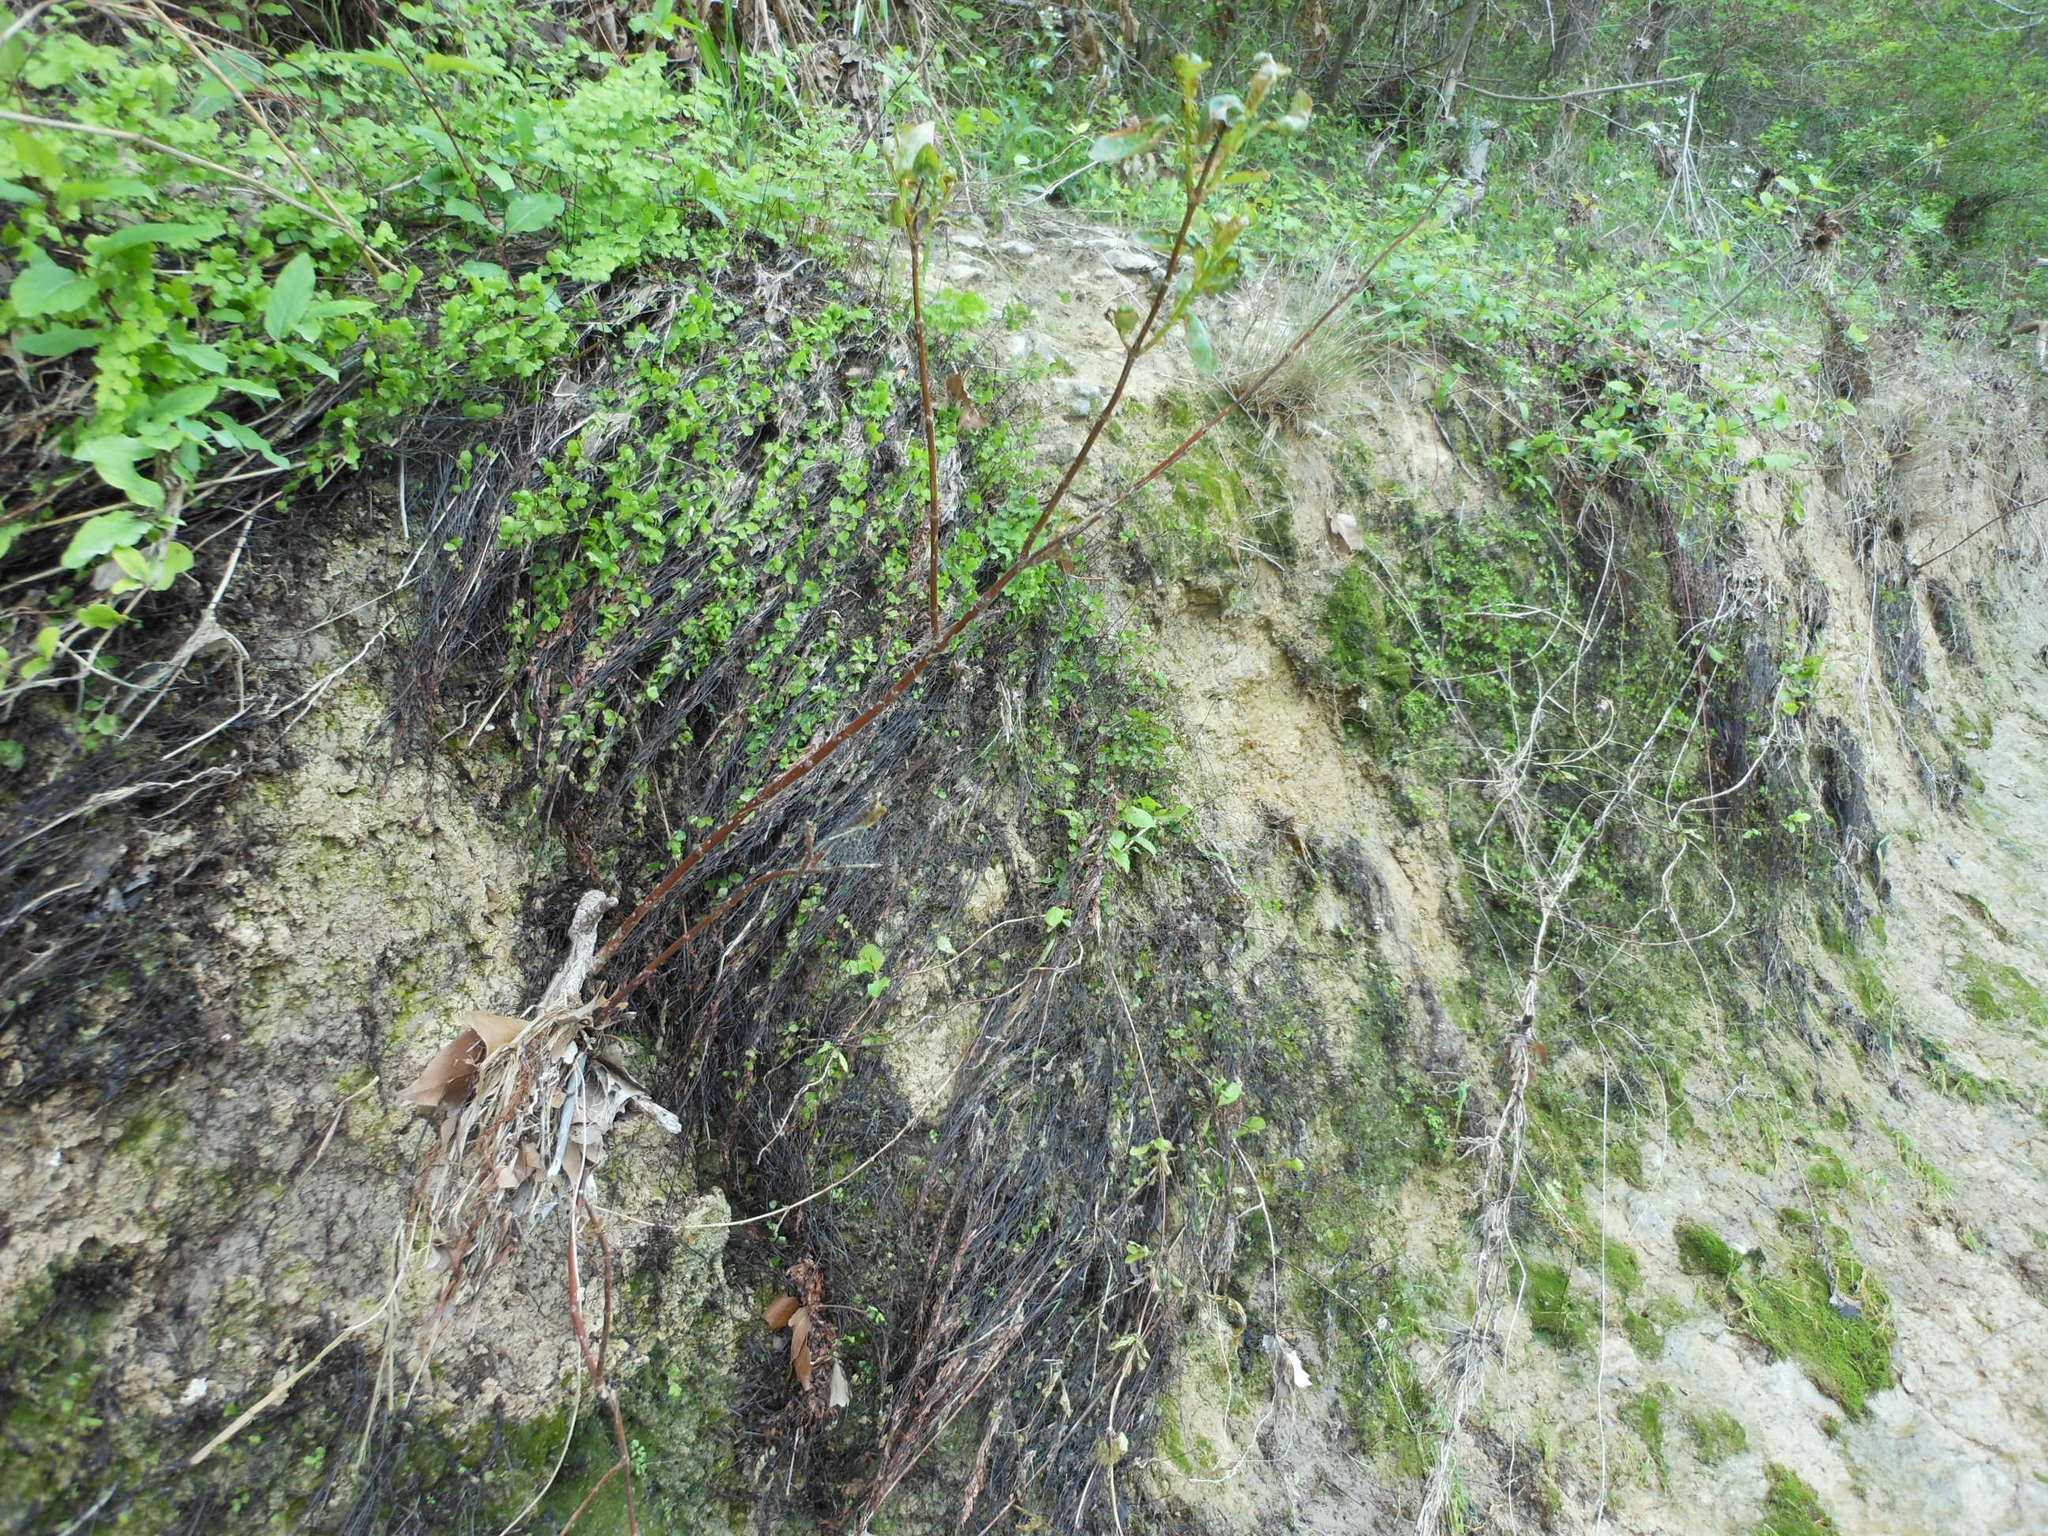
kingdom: Plantae
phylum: Tracheophyta
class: Polypodiopsida
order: Polypodiales
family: Pteridaceae
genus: Adiantum
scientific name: Adiantum capillus-veneris
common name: Maidenhair fern
